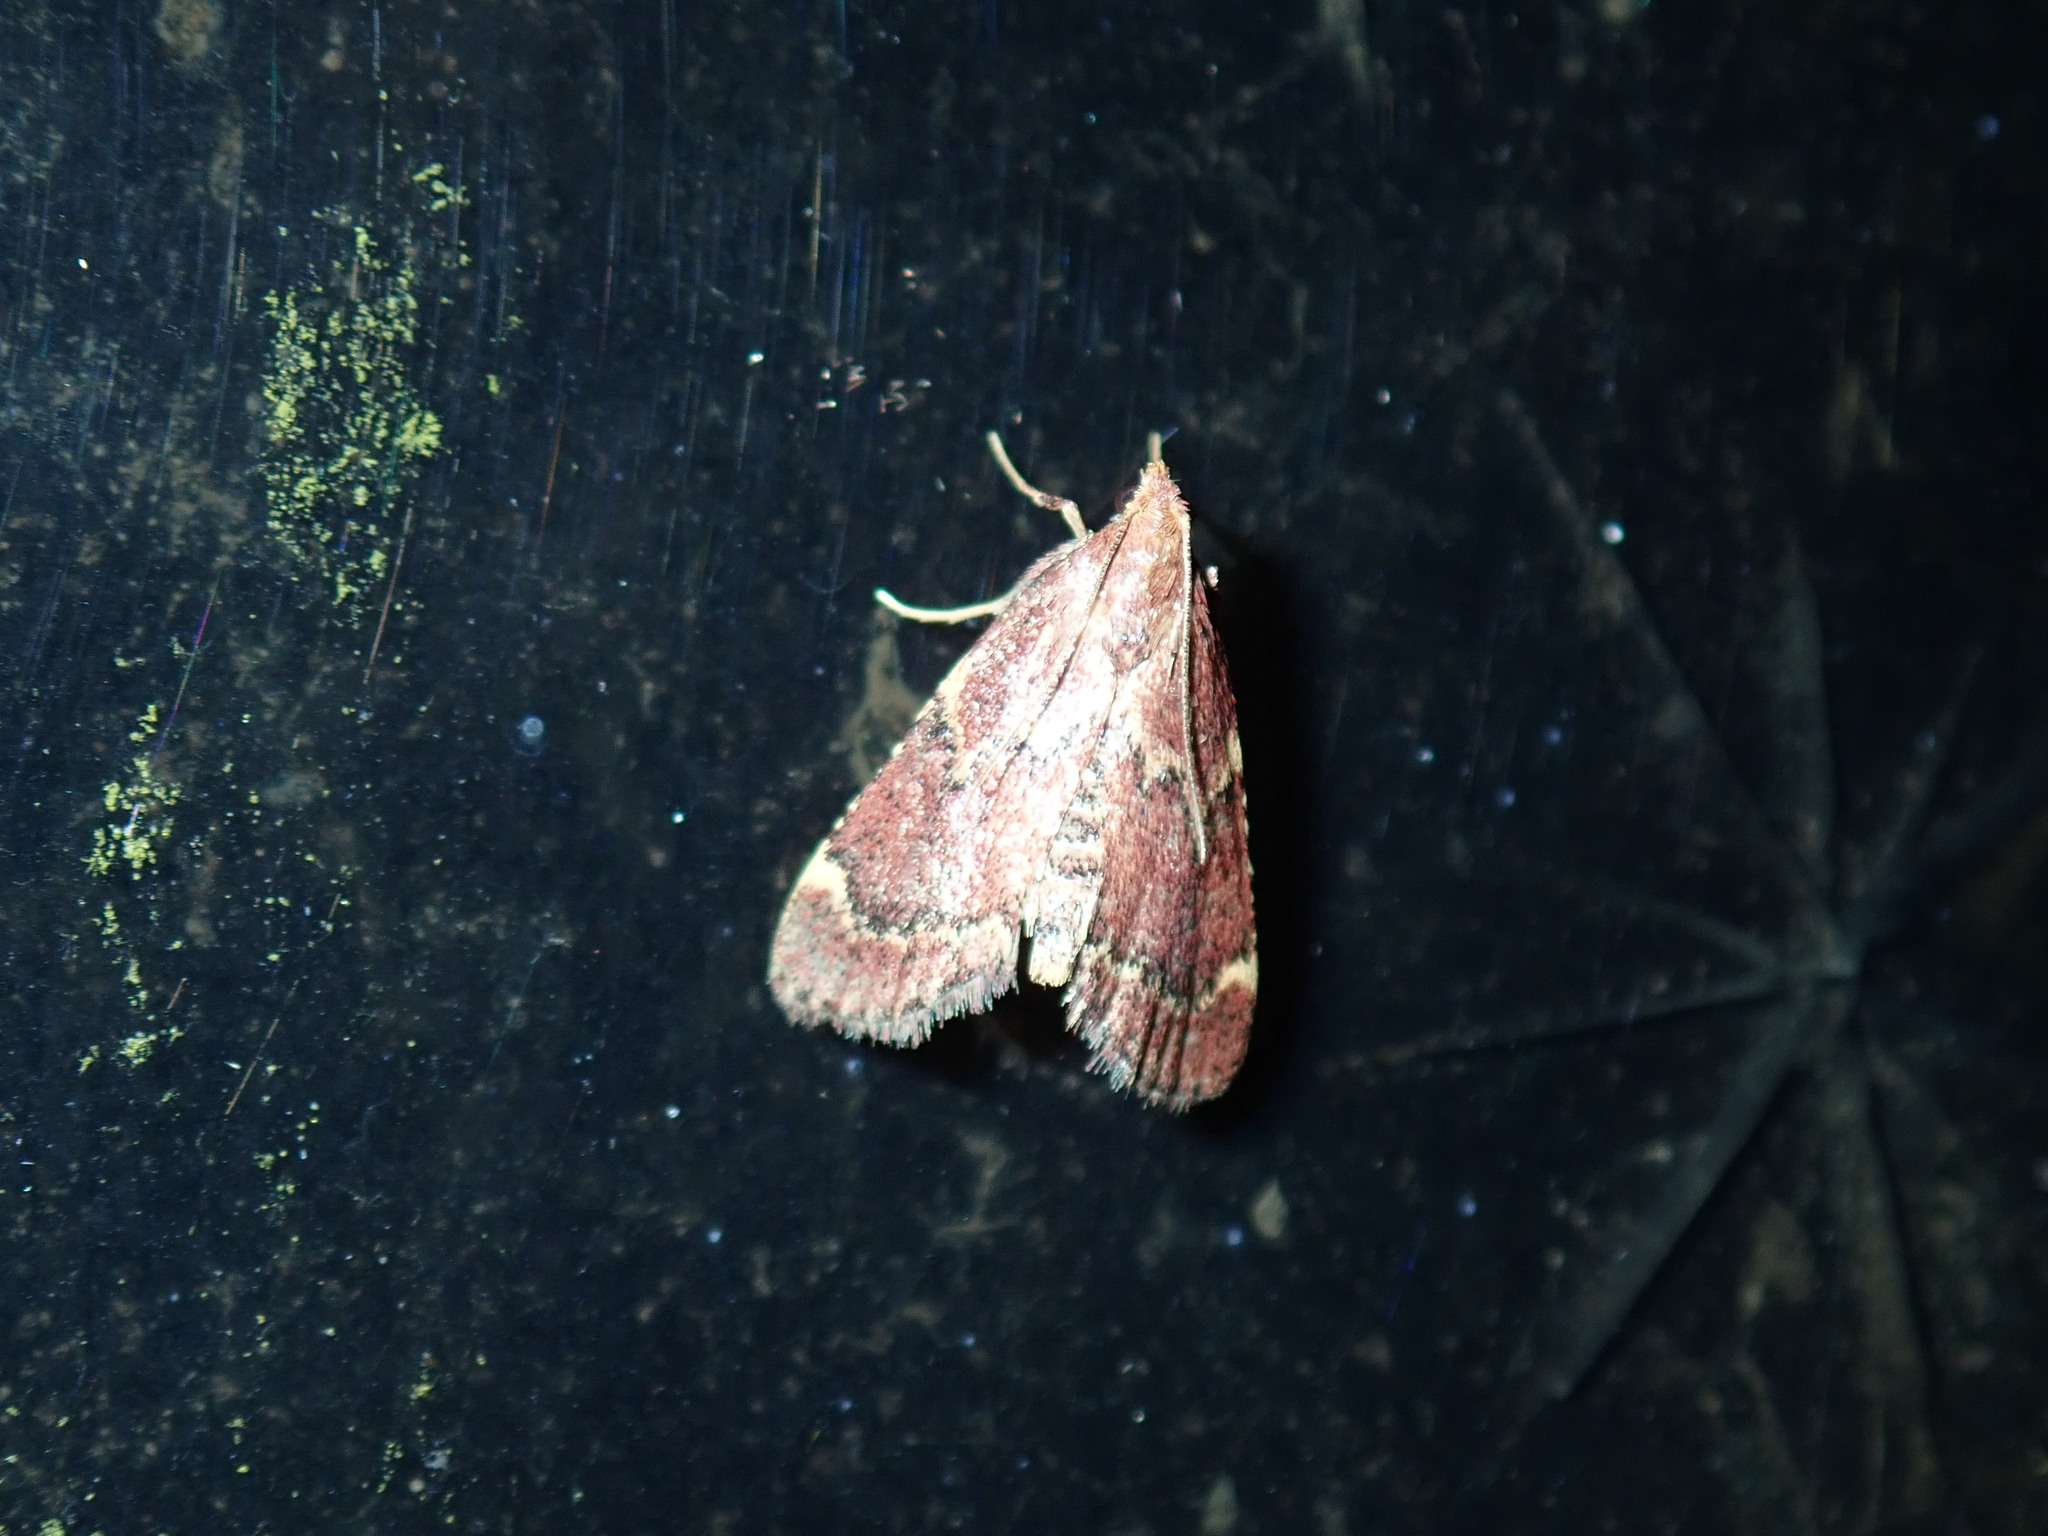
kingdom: Animalia
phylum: Arthropoda
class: Insecta
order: Lepidoptera
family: Pyralidae
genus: Hypsopygia
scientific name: Hypsopygia intermedialis
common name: Red-shawled moth
